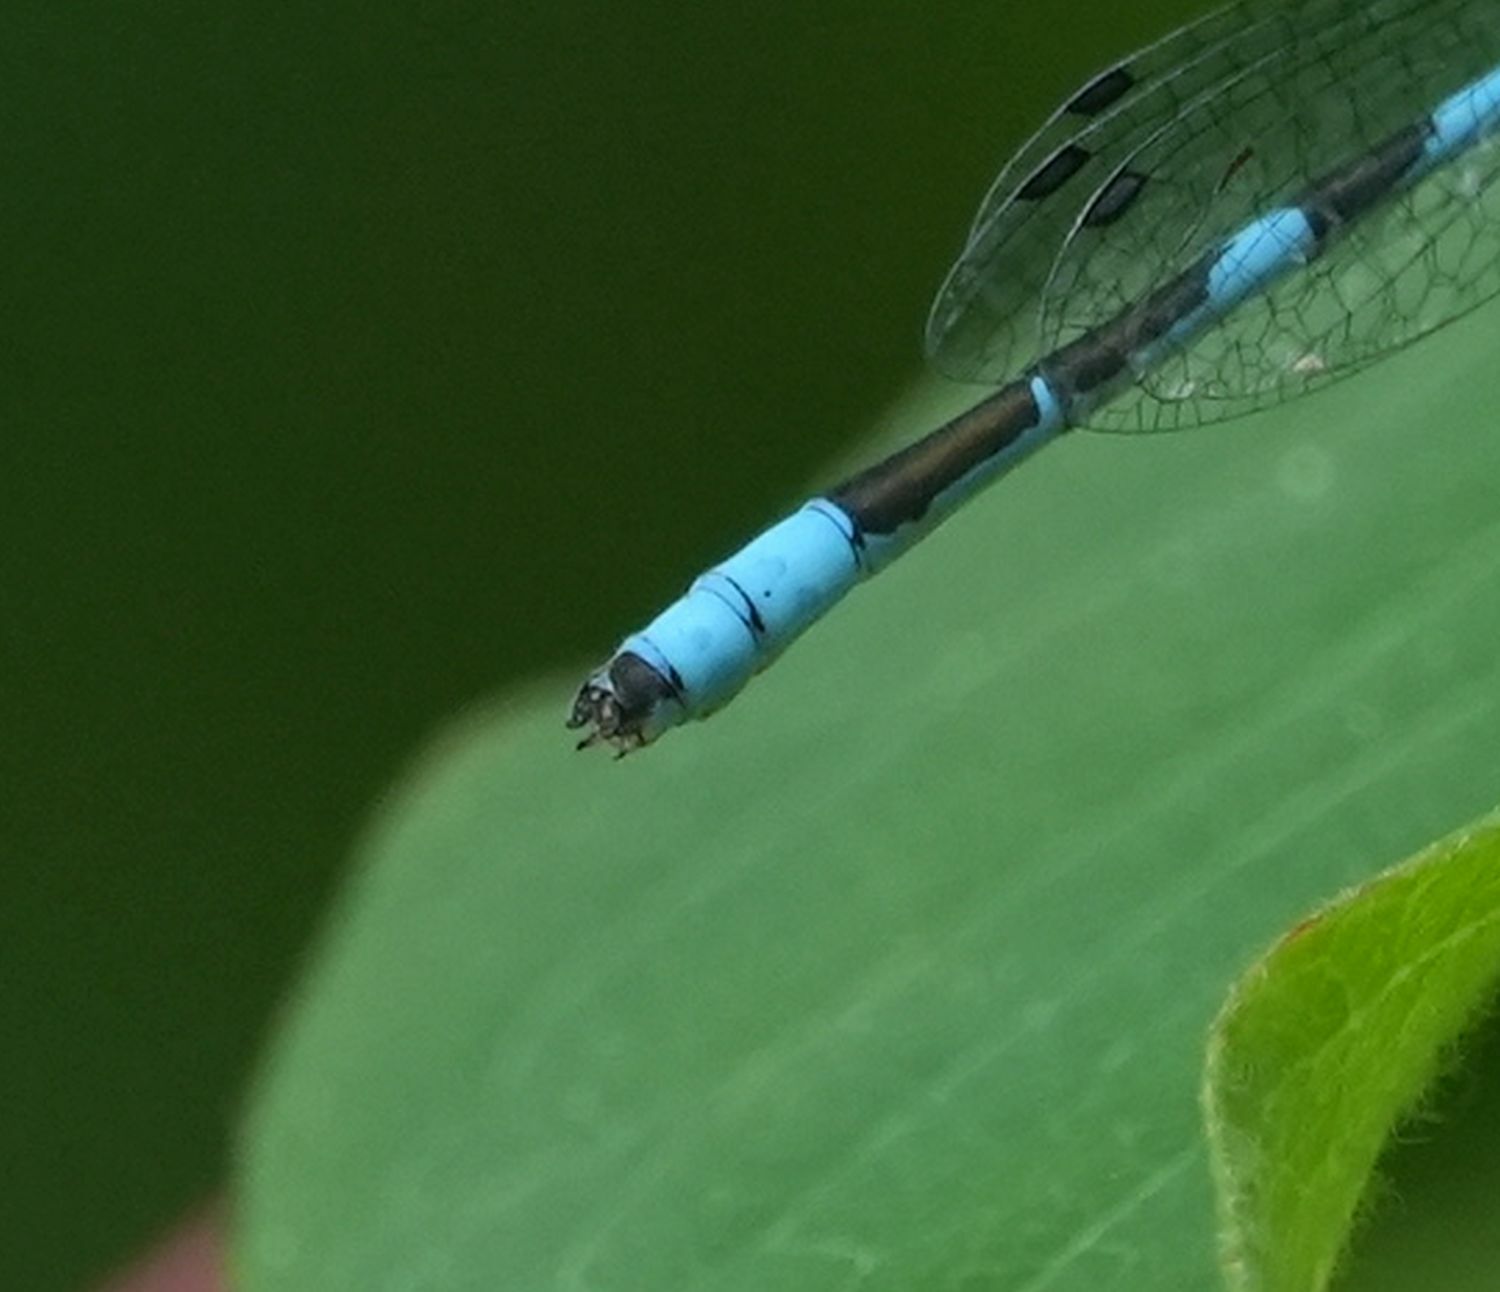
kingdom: Animalia
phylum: Arthropoda
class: Insecta
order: Odonata
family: Coenagrionidae
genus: Enallagma
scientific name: Enallagma hageni
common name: Hagen's bluet
